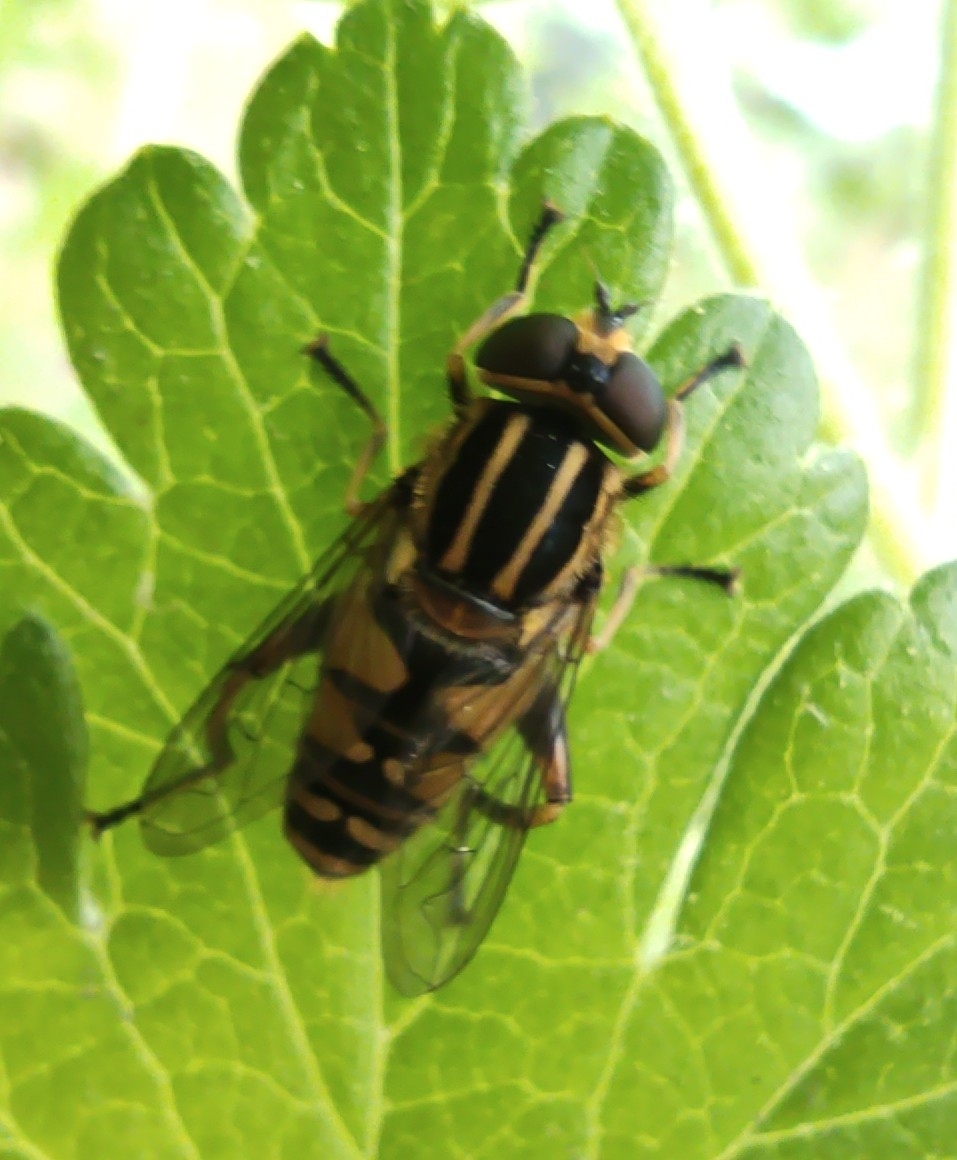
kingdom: Animalia
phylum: Arthropoda
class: Insecta
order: Diptera
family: Syrphidae
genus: Helophilus
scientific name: Helophilus pendulus
